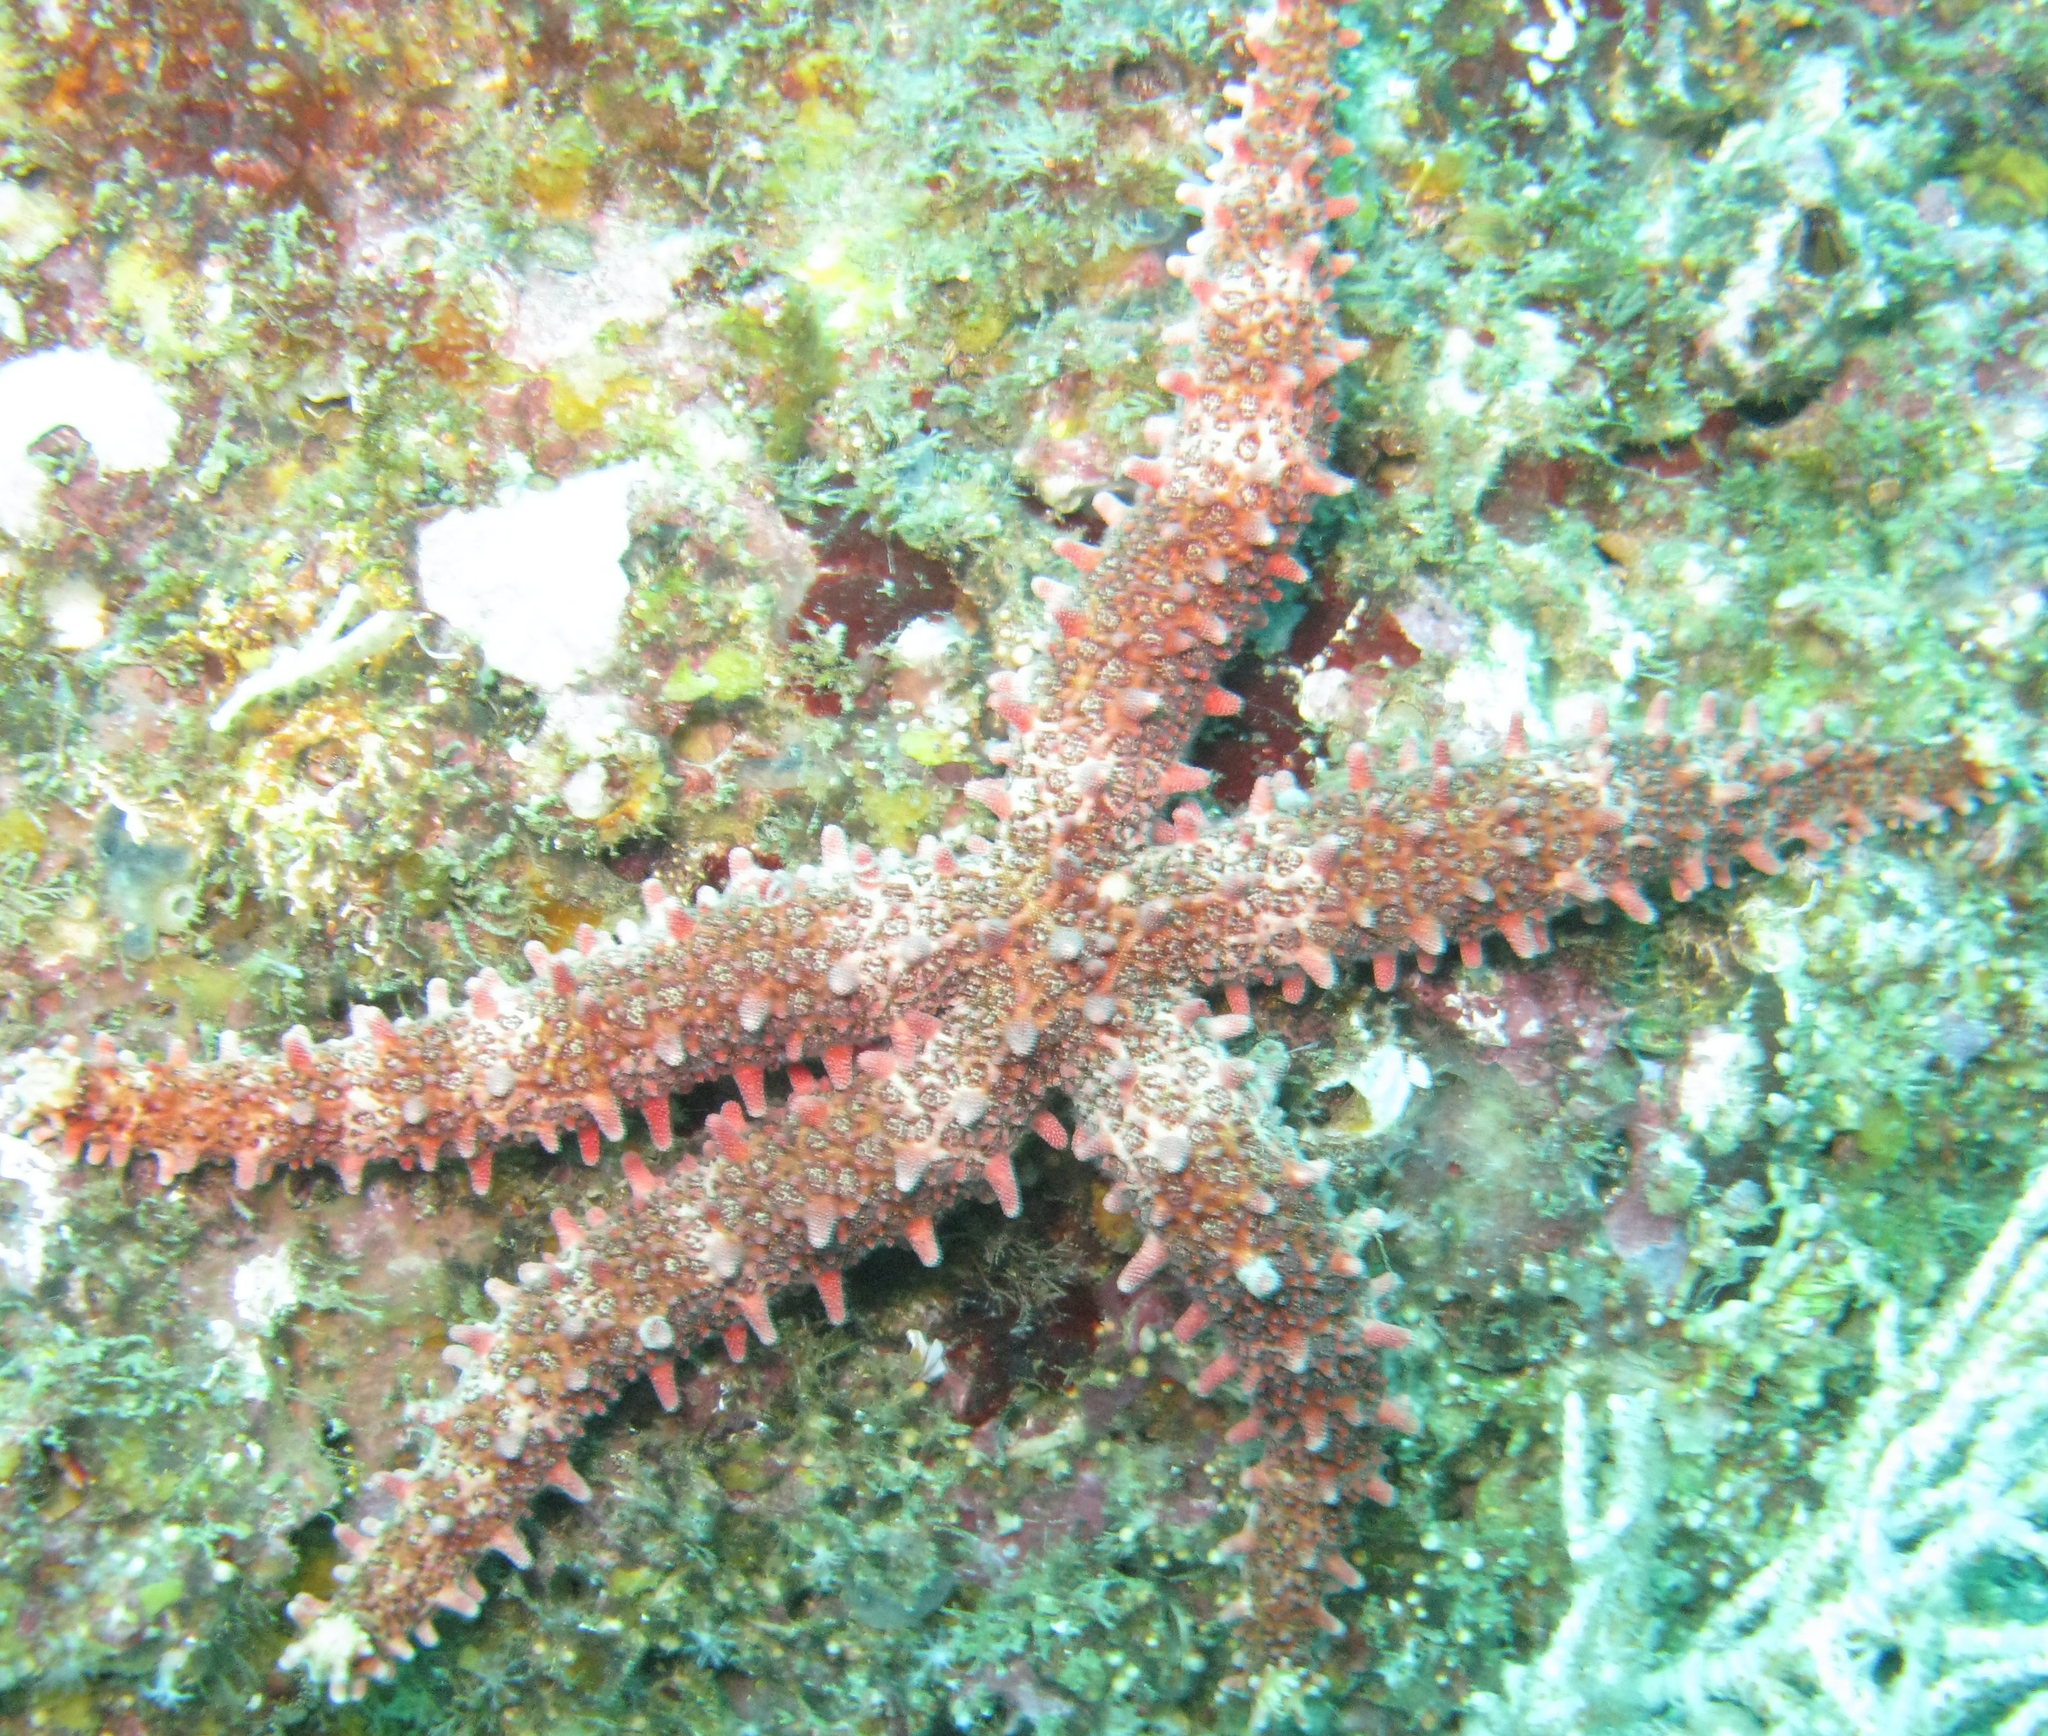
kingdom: Animalia
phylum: Echinodermata
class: Asteroidea
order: Valvatida
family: Mithrodiidae
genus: Mithrodia
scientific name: Mithrodia bradleyi
